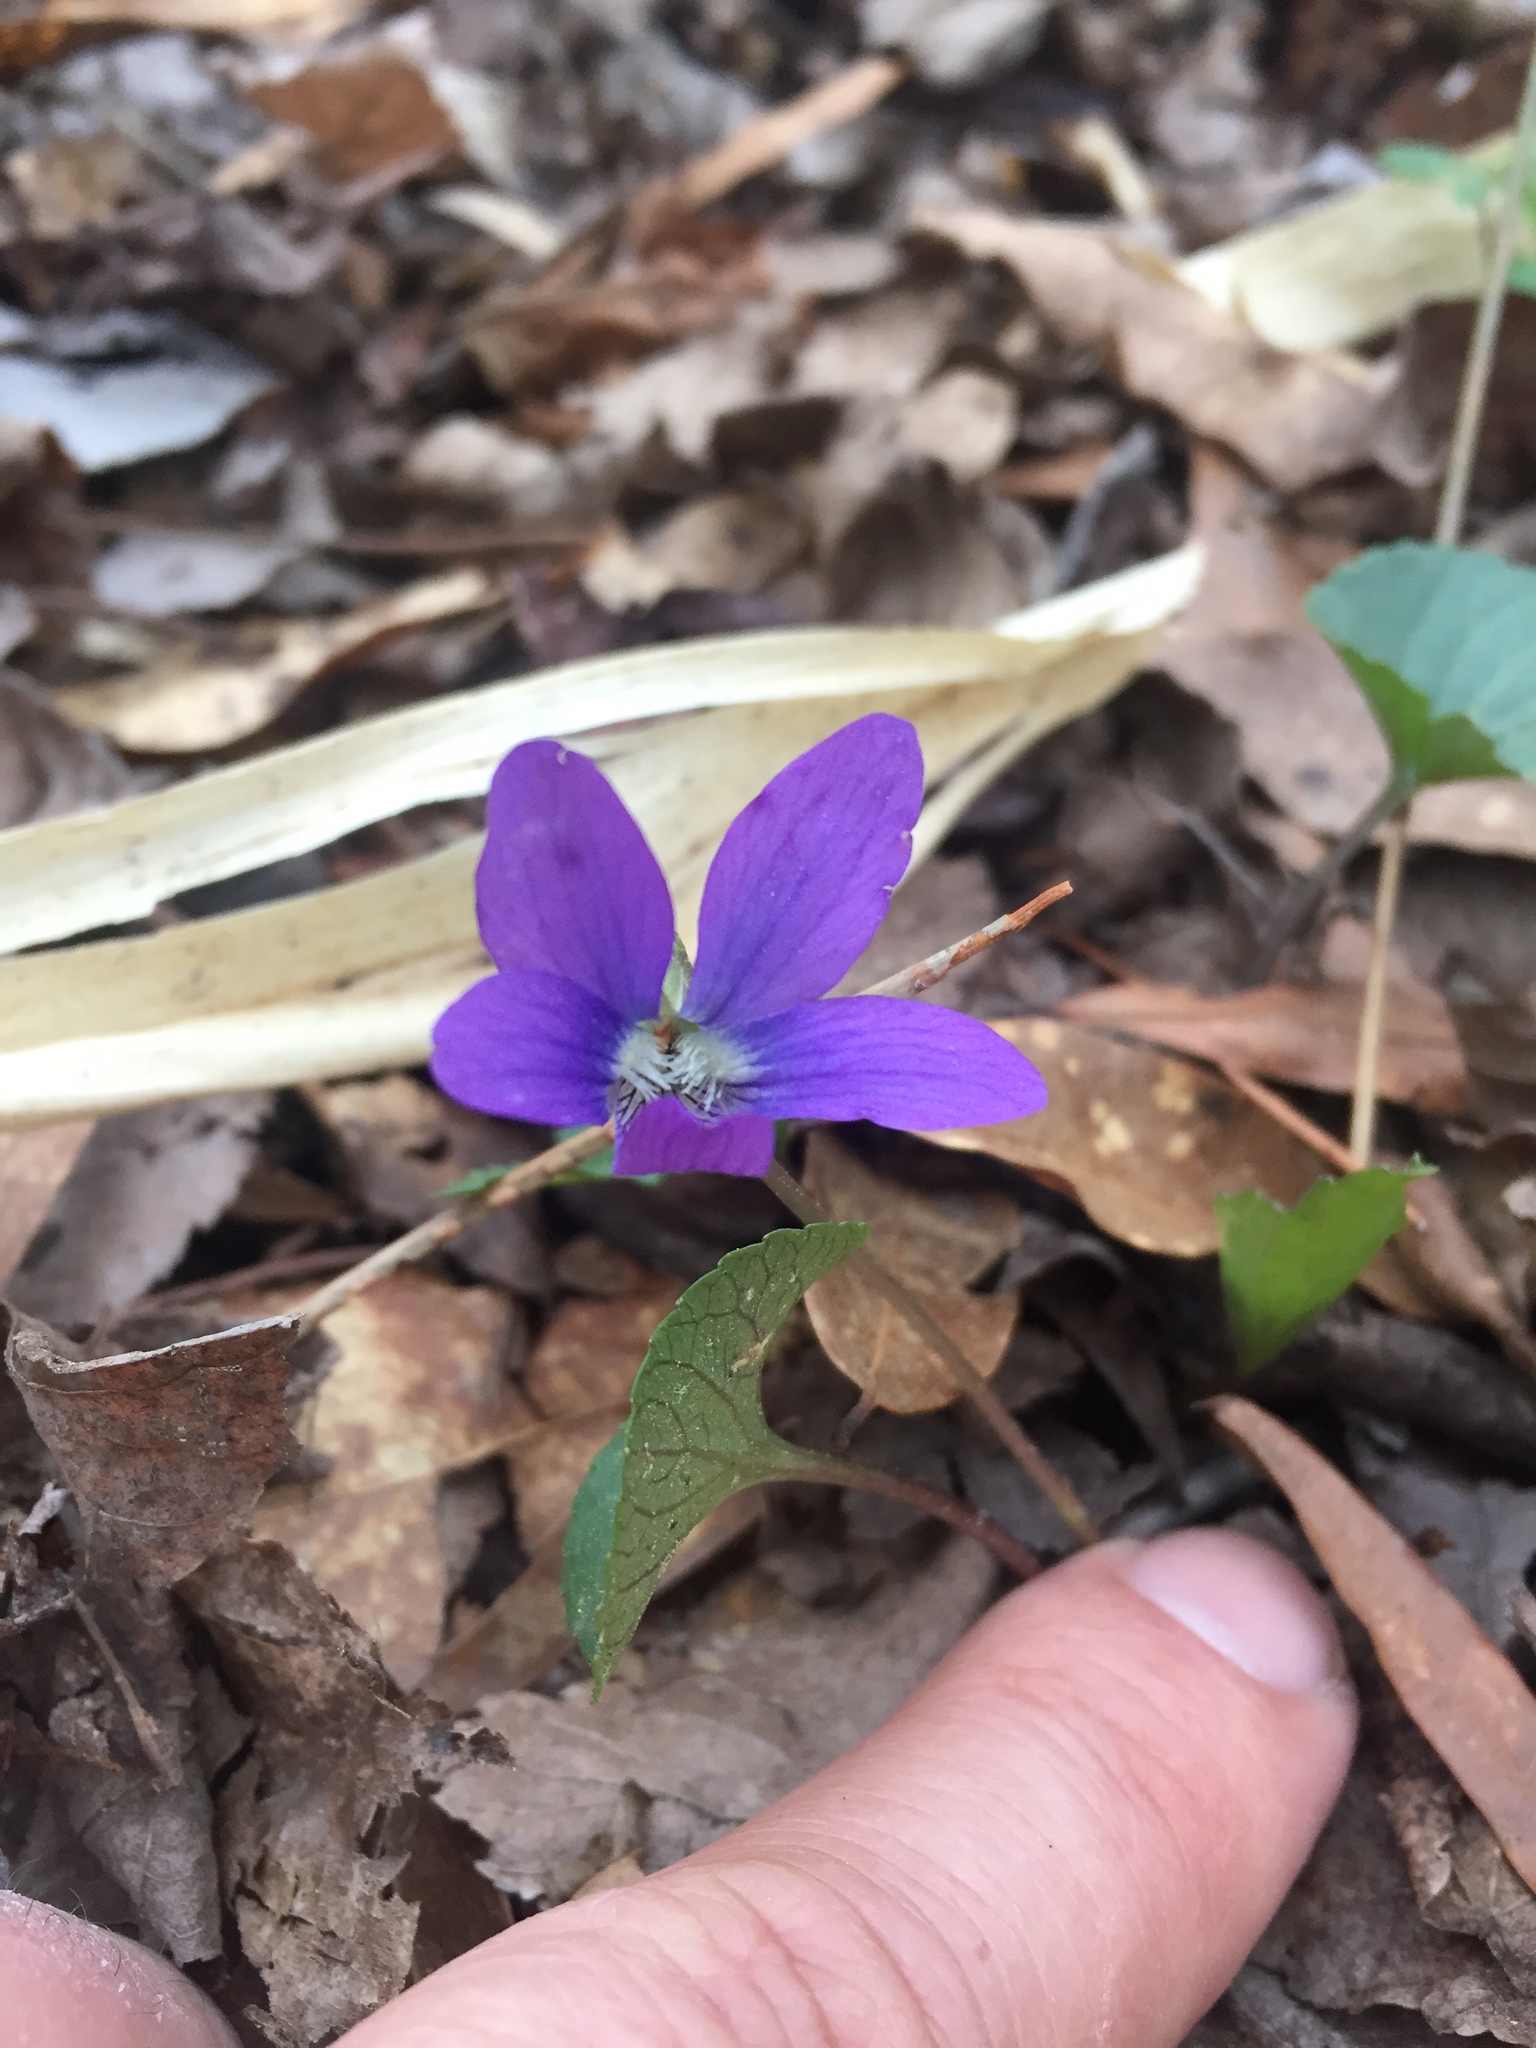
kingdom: Plantae
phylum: Tracheophyta
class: Magnoliopsida
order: Malpighiales
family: Violaceae
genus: Viola
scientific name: Viola sororia
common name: Dooryard violet
